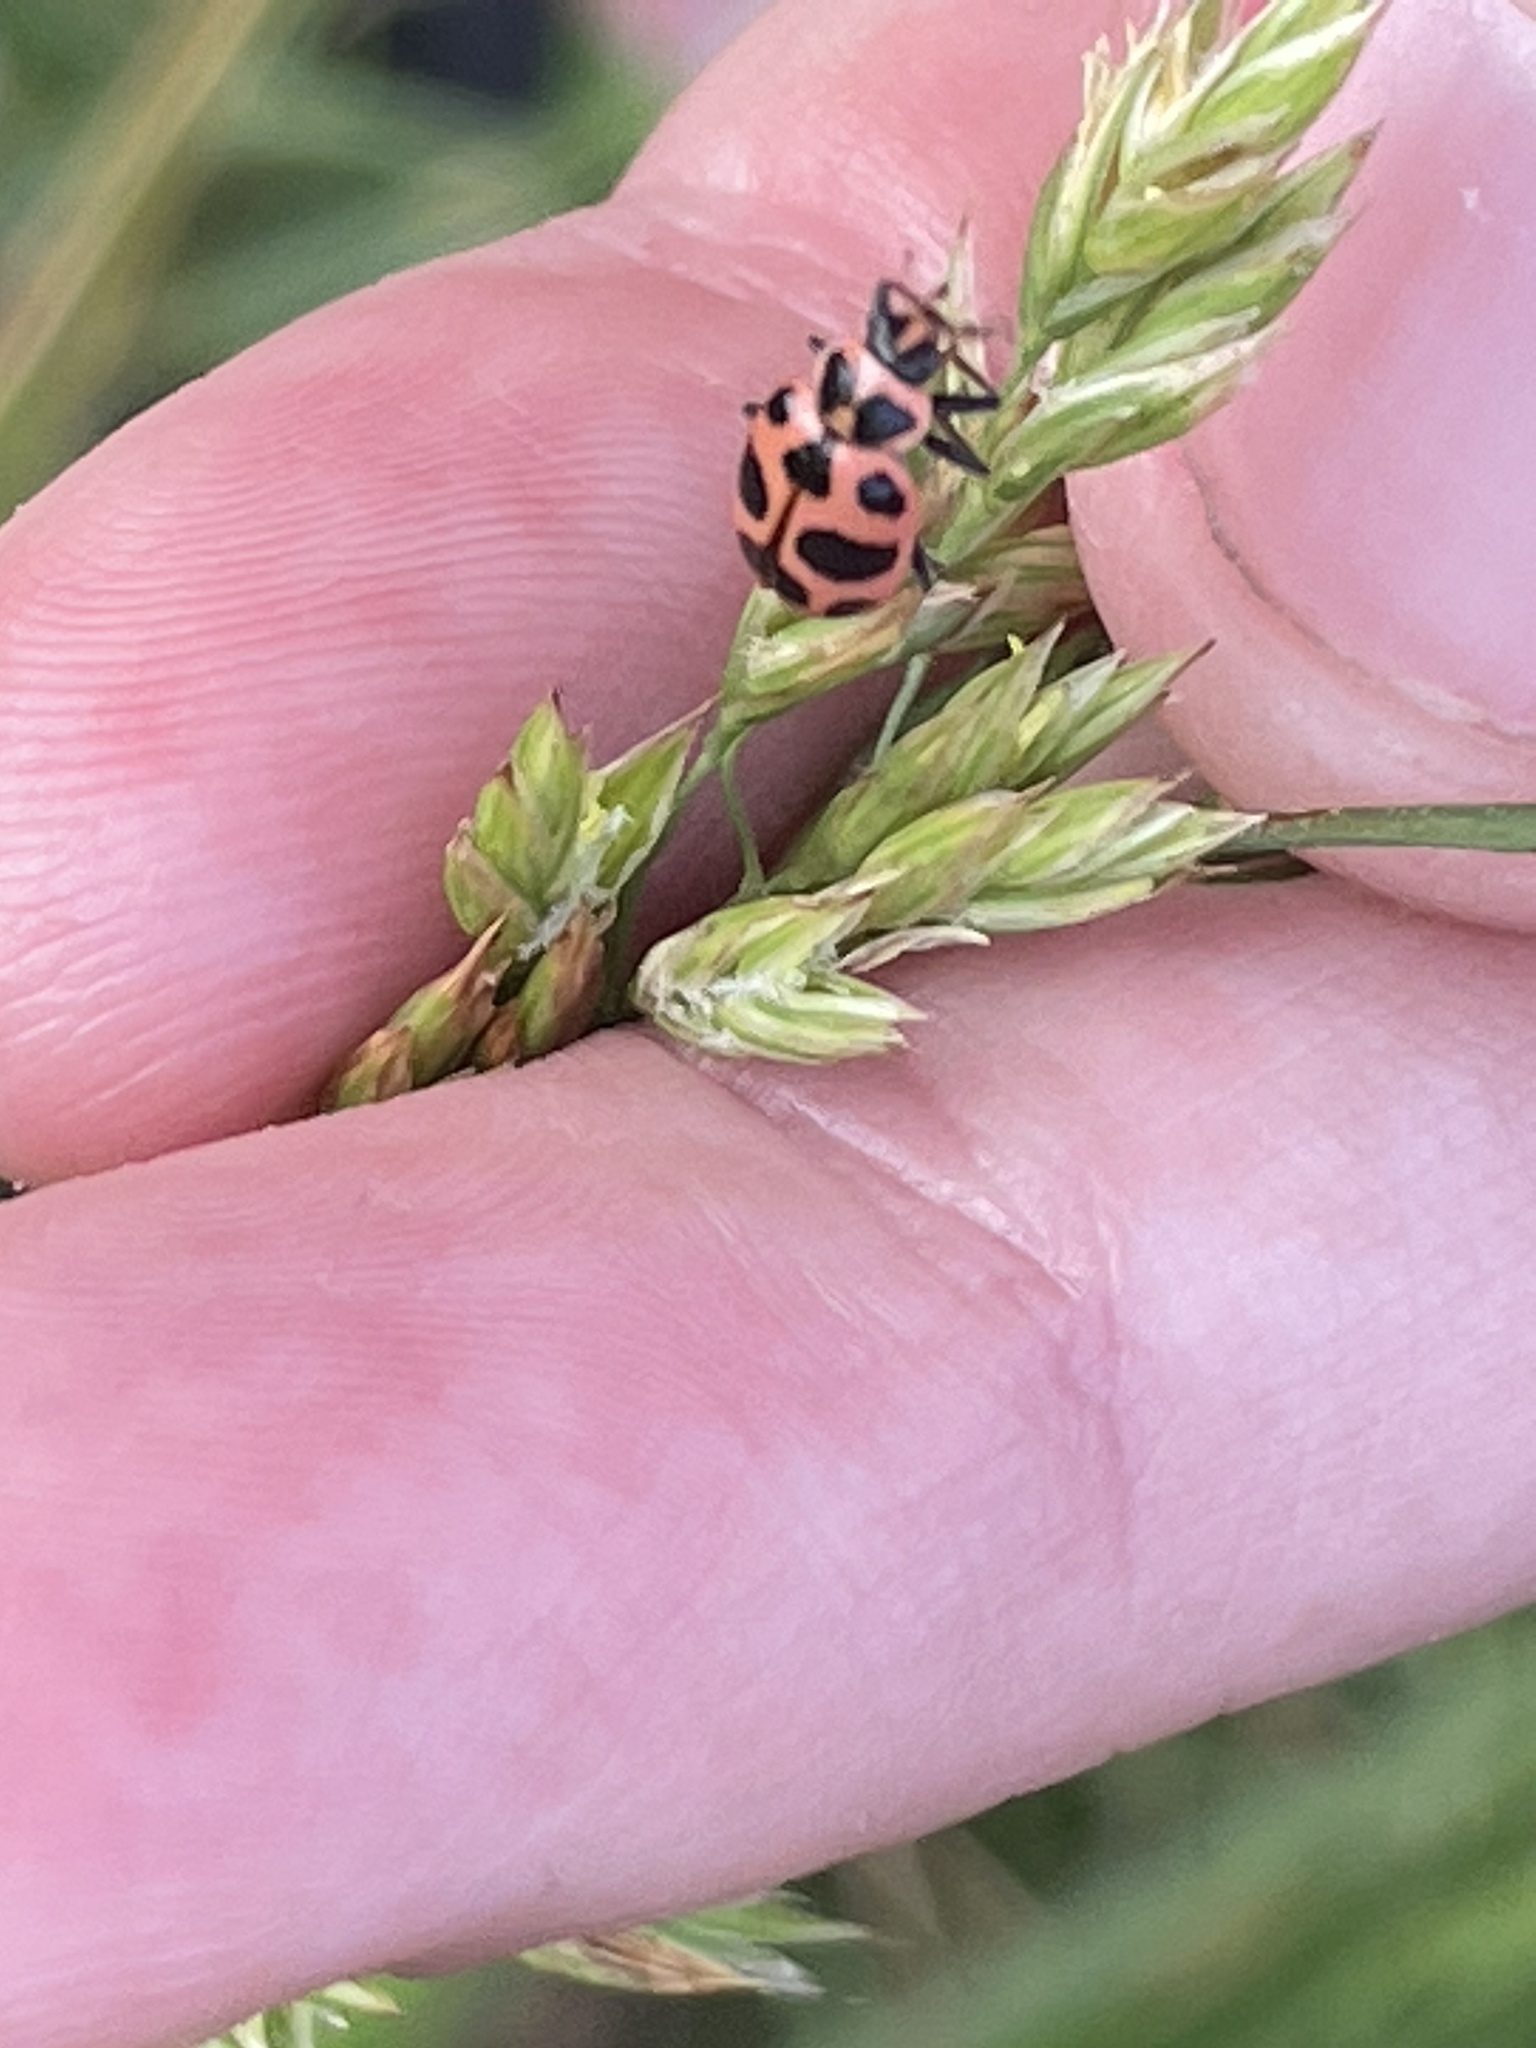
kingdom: Animalia
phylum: Arthropoda
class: Insecta
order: Coleoptera
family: Coccinellidae
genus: Coleomegilla
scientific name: Coleomegilla maculata
